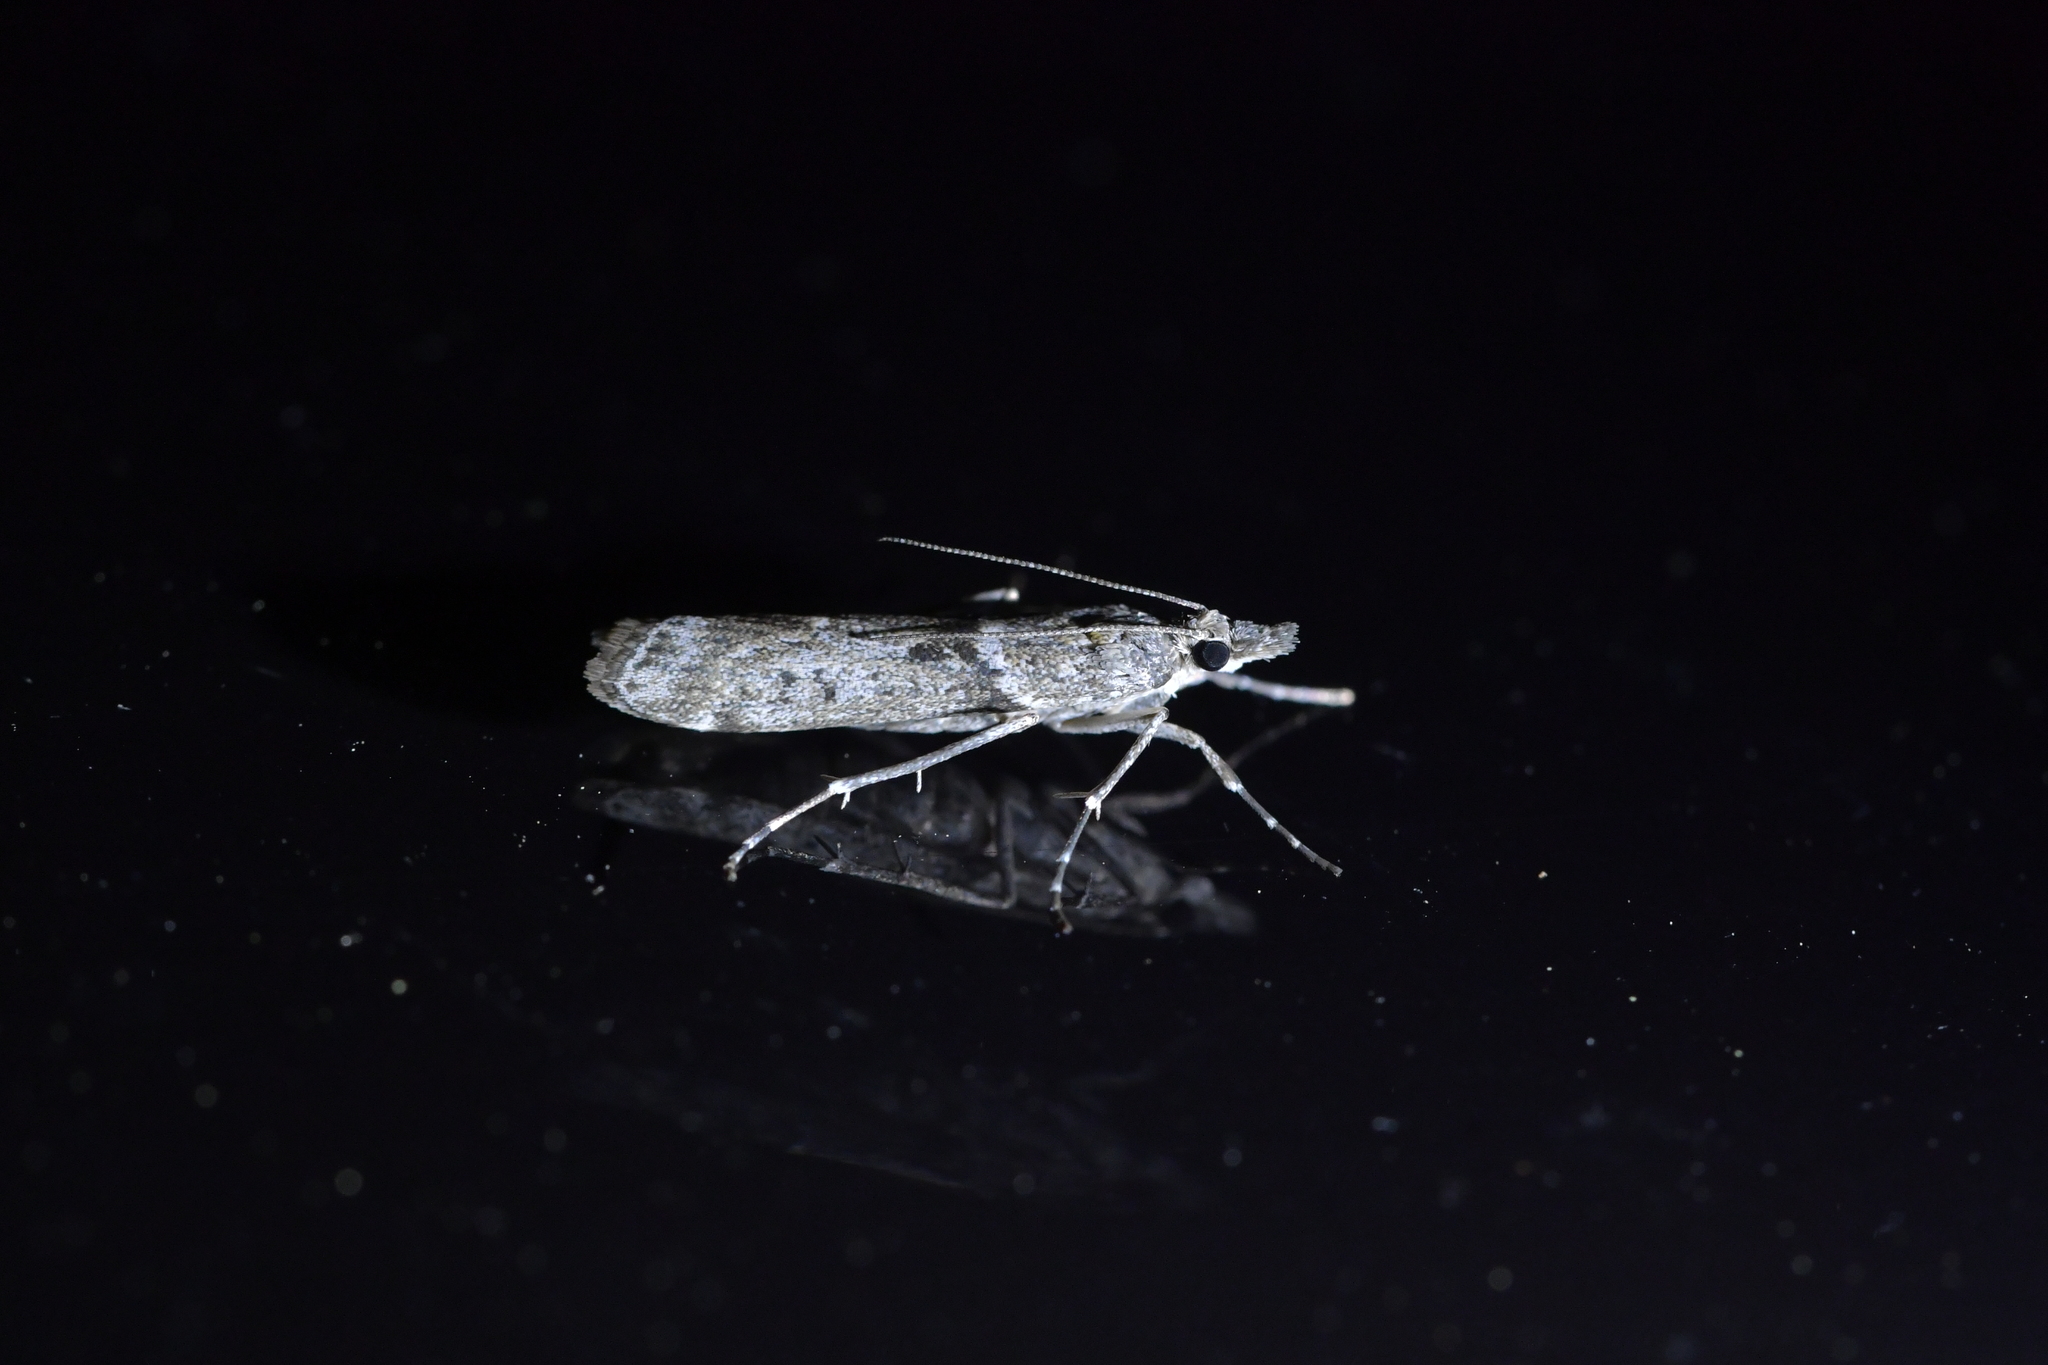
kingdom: Animalia
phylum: Arthropoda
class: Insecta
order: Lepidoptera
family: Crambidae
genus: Eudonia
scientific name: Eudonia leptalea
